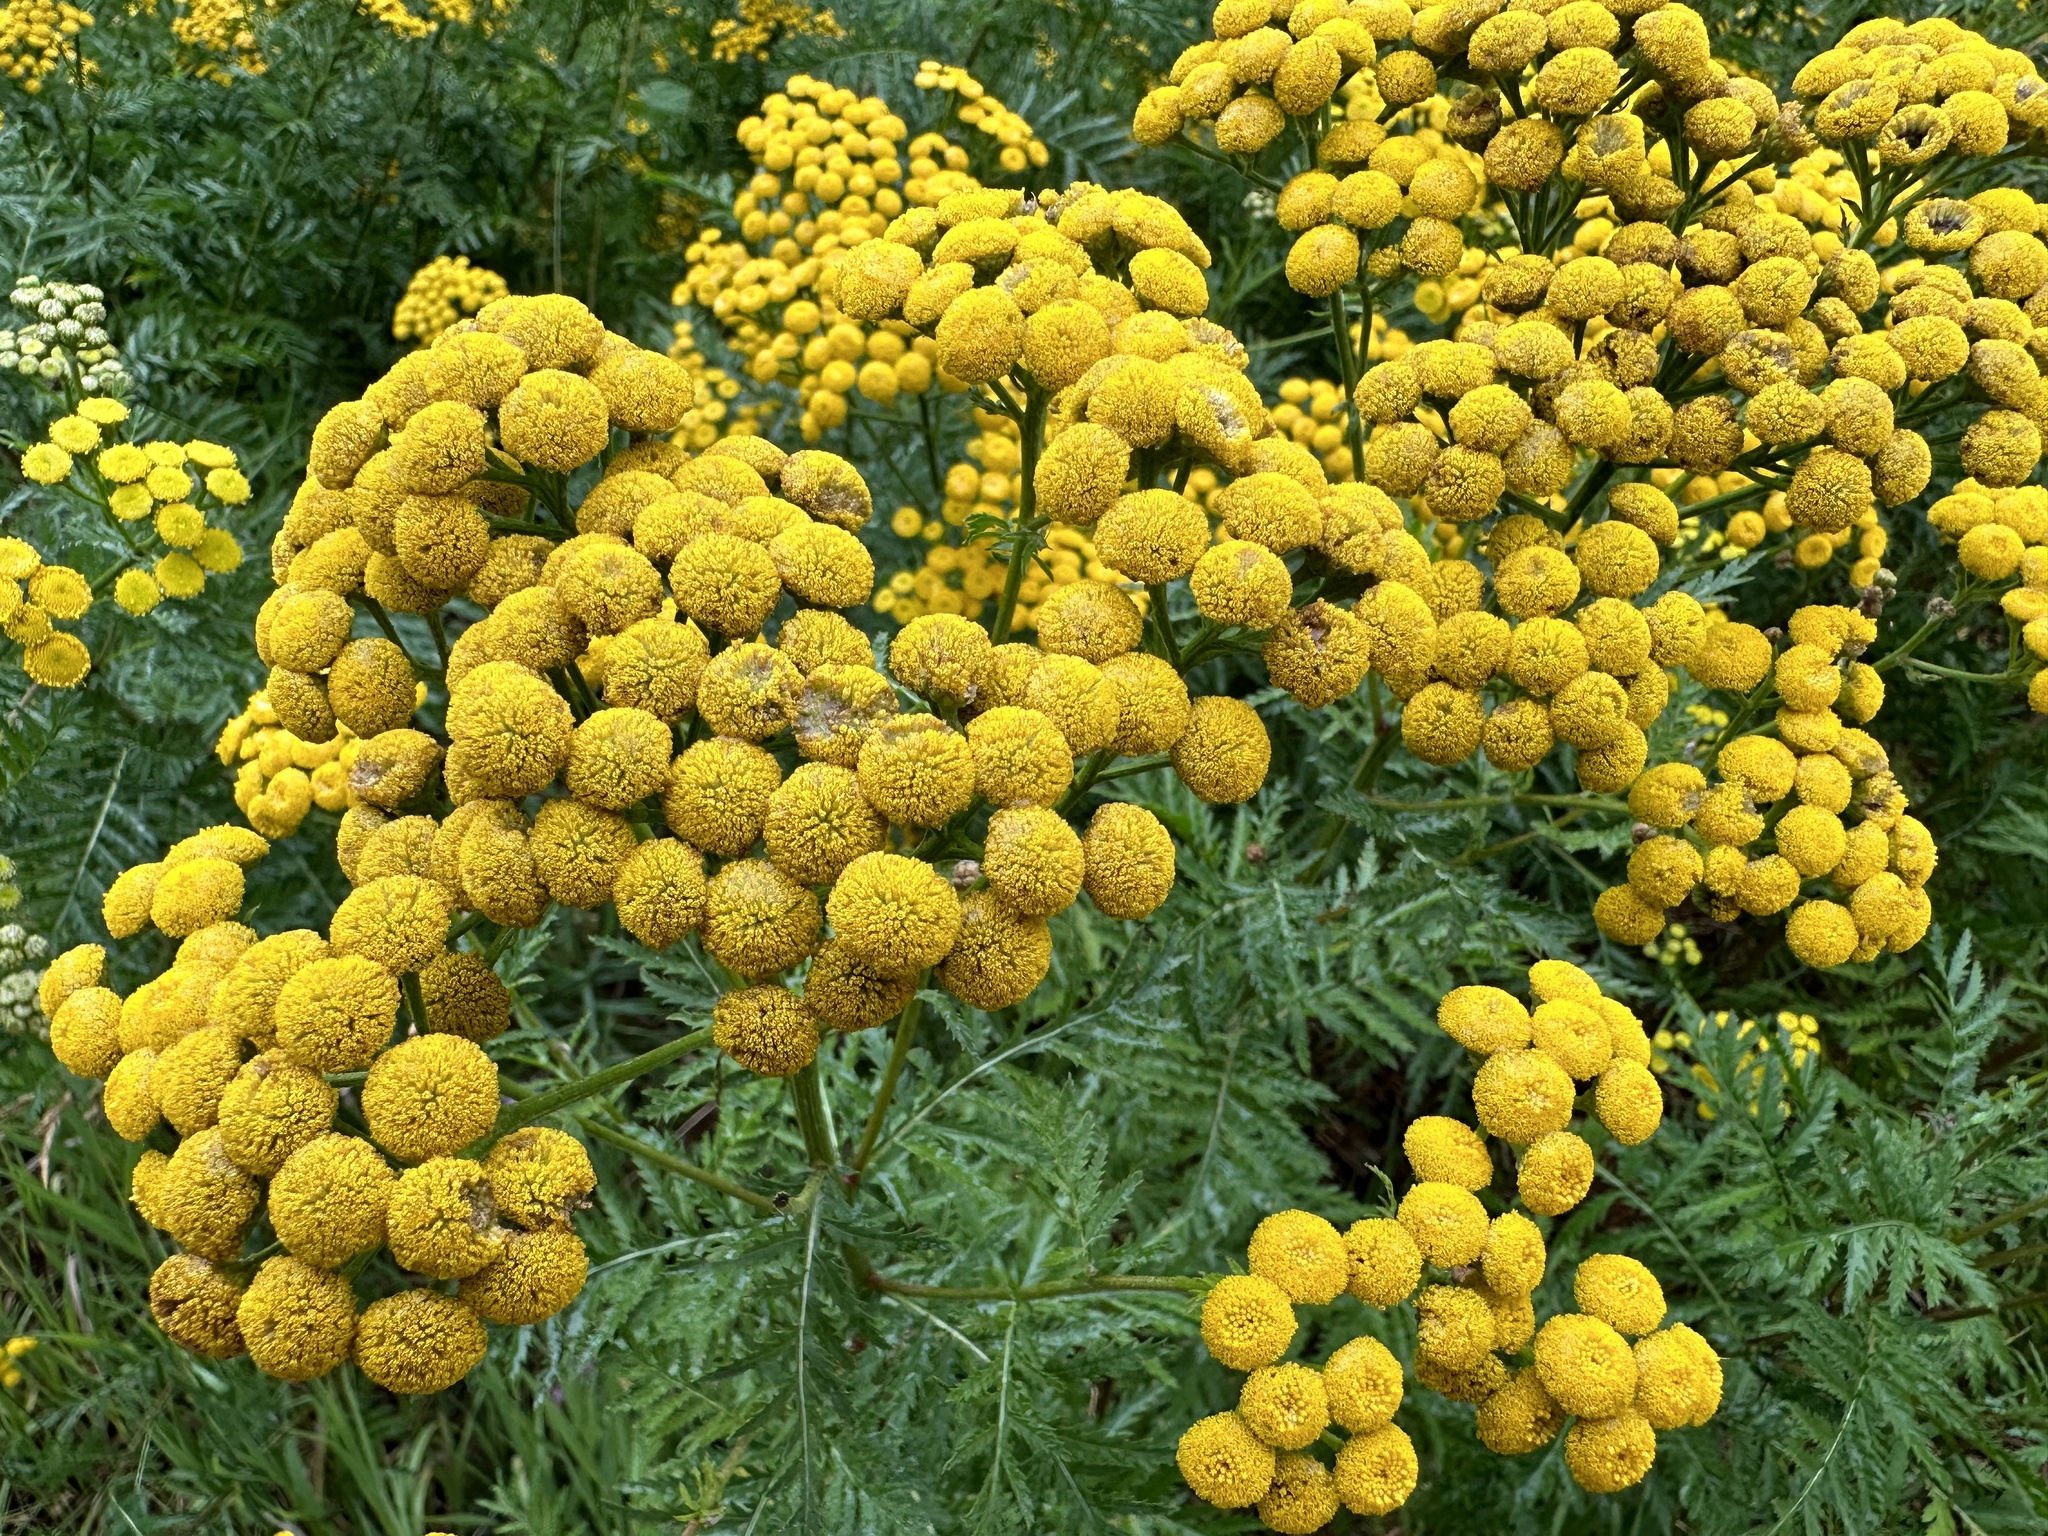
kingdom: Plantae
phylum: Tracheophyta
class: Magnoliopsida
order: Asterales
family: Asteraceae
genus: Tanacetum
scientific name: Tanacetum vulgare
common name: Common tansy
